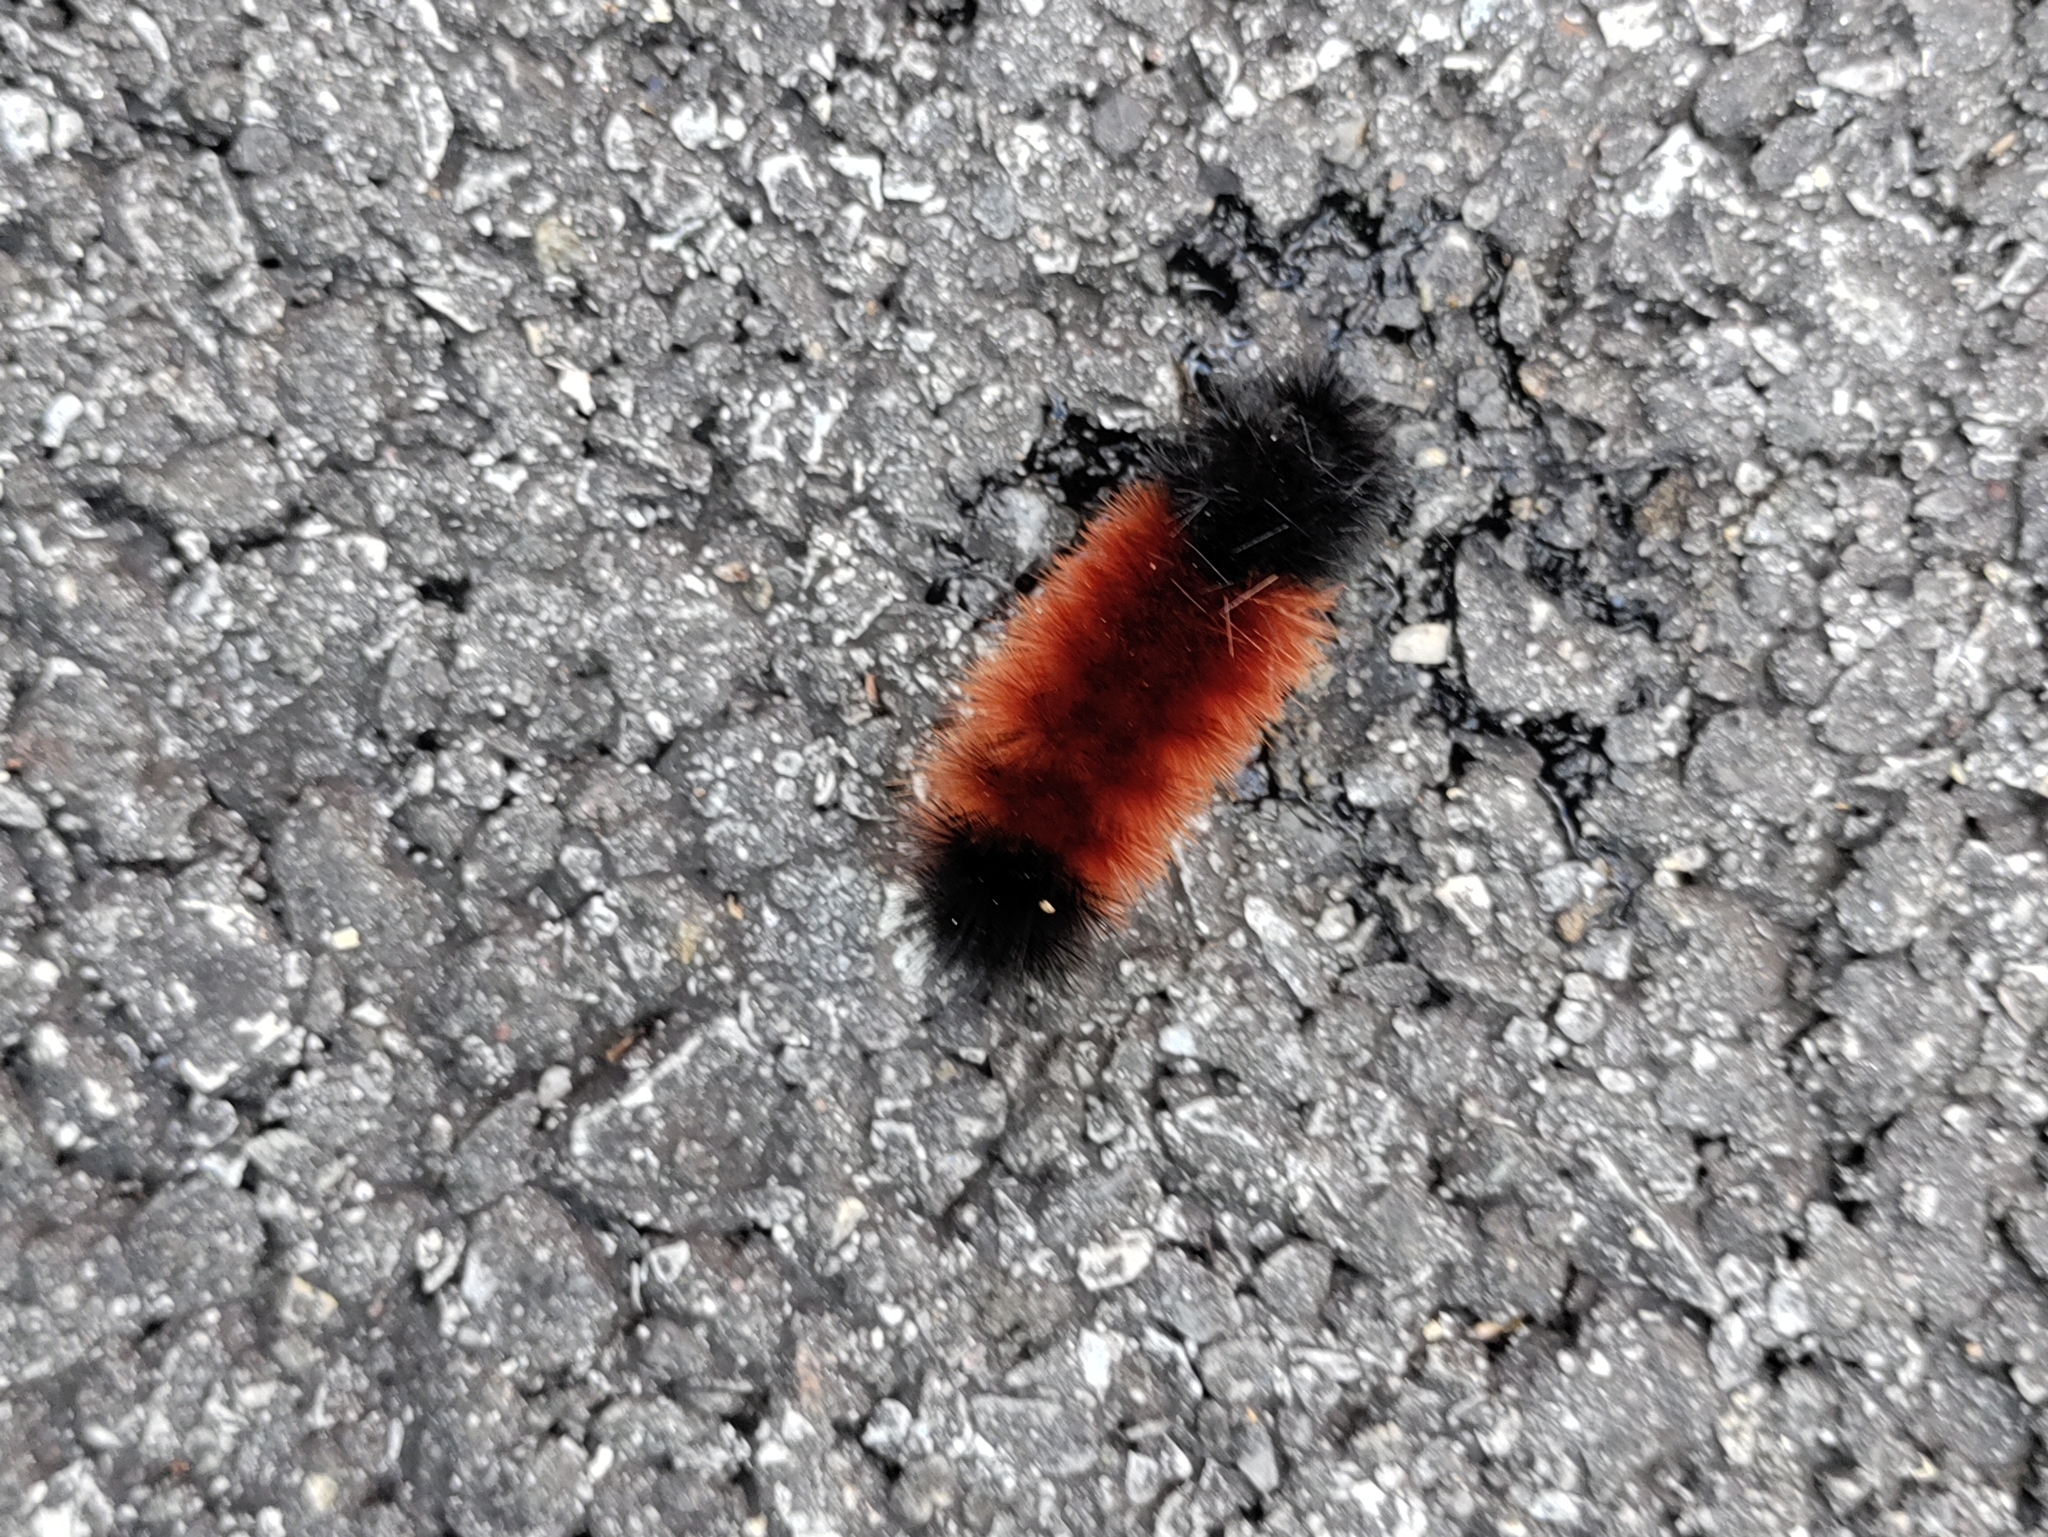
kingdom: Animalia
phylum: Arthropoda
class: Insecta
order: Lepidoptera
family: Erebidae
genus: Pyrrharctia
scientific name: Pyrrharctia isabella
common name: Isabella tiger moth
